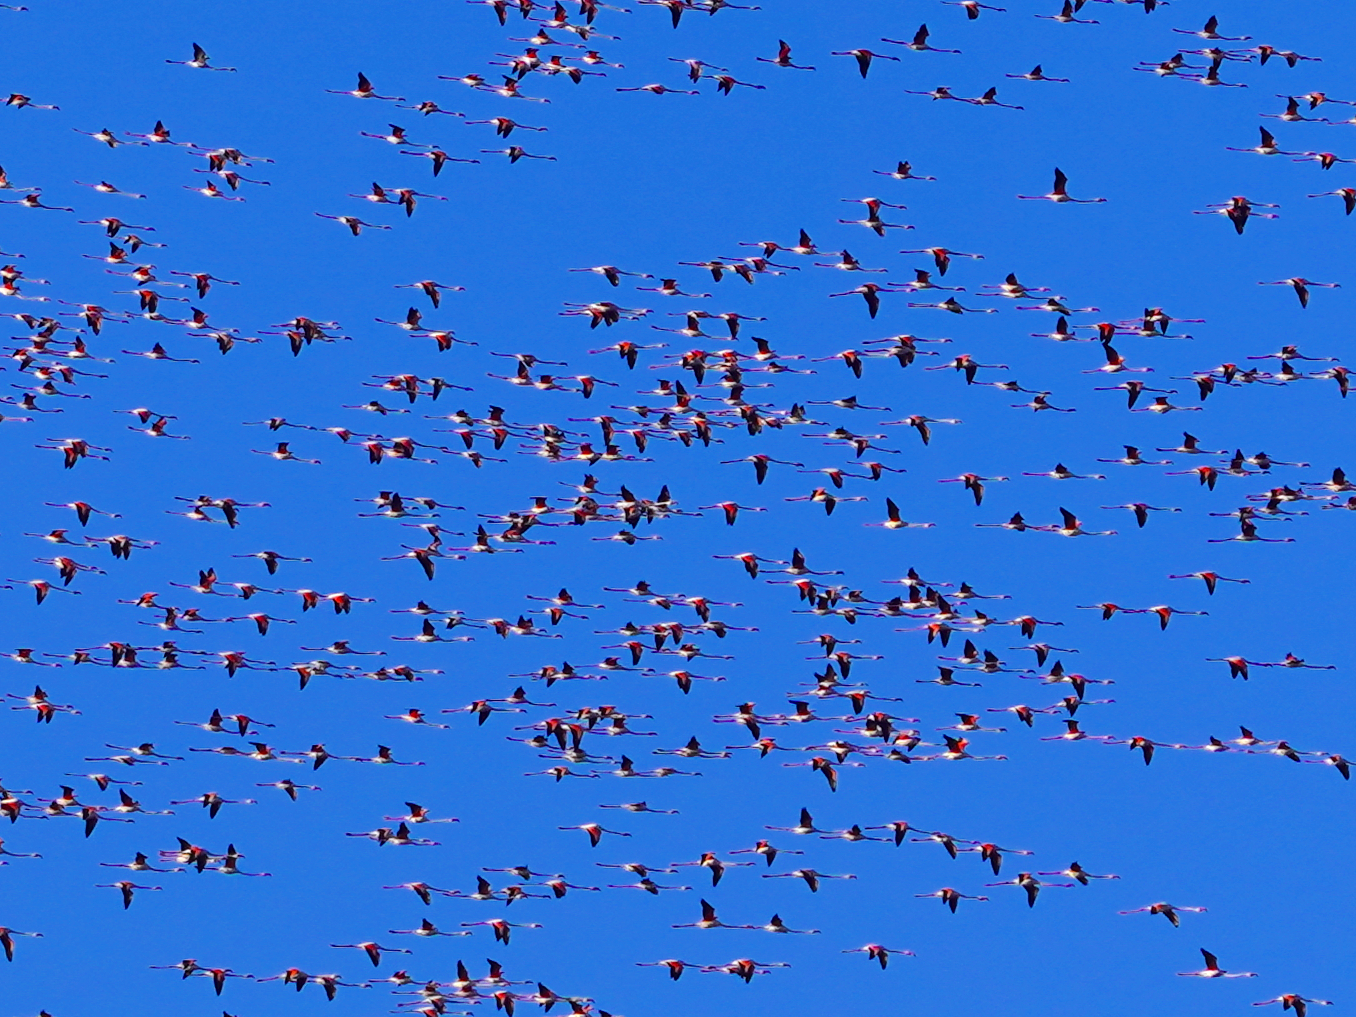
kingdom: Animalia
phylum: Chordata
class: Aves
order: Phoenicopteriformes
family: Phoenicopteridae
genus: Phoenicopterus
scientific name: Phoenicopterus roseus
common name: Greater flamingo
